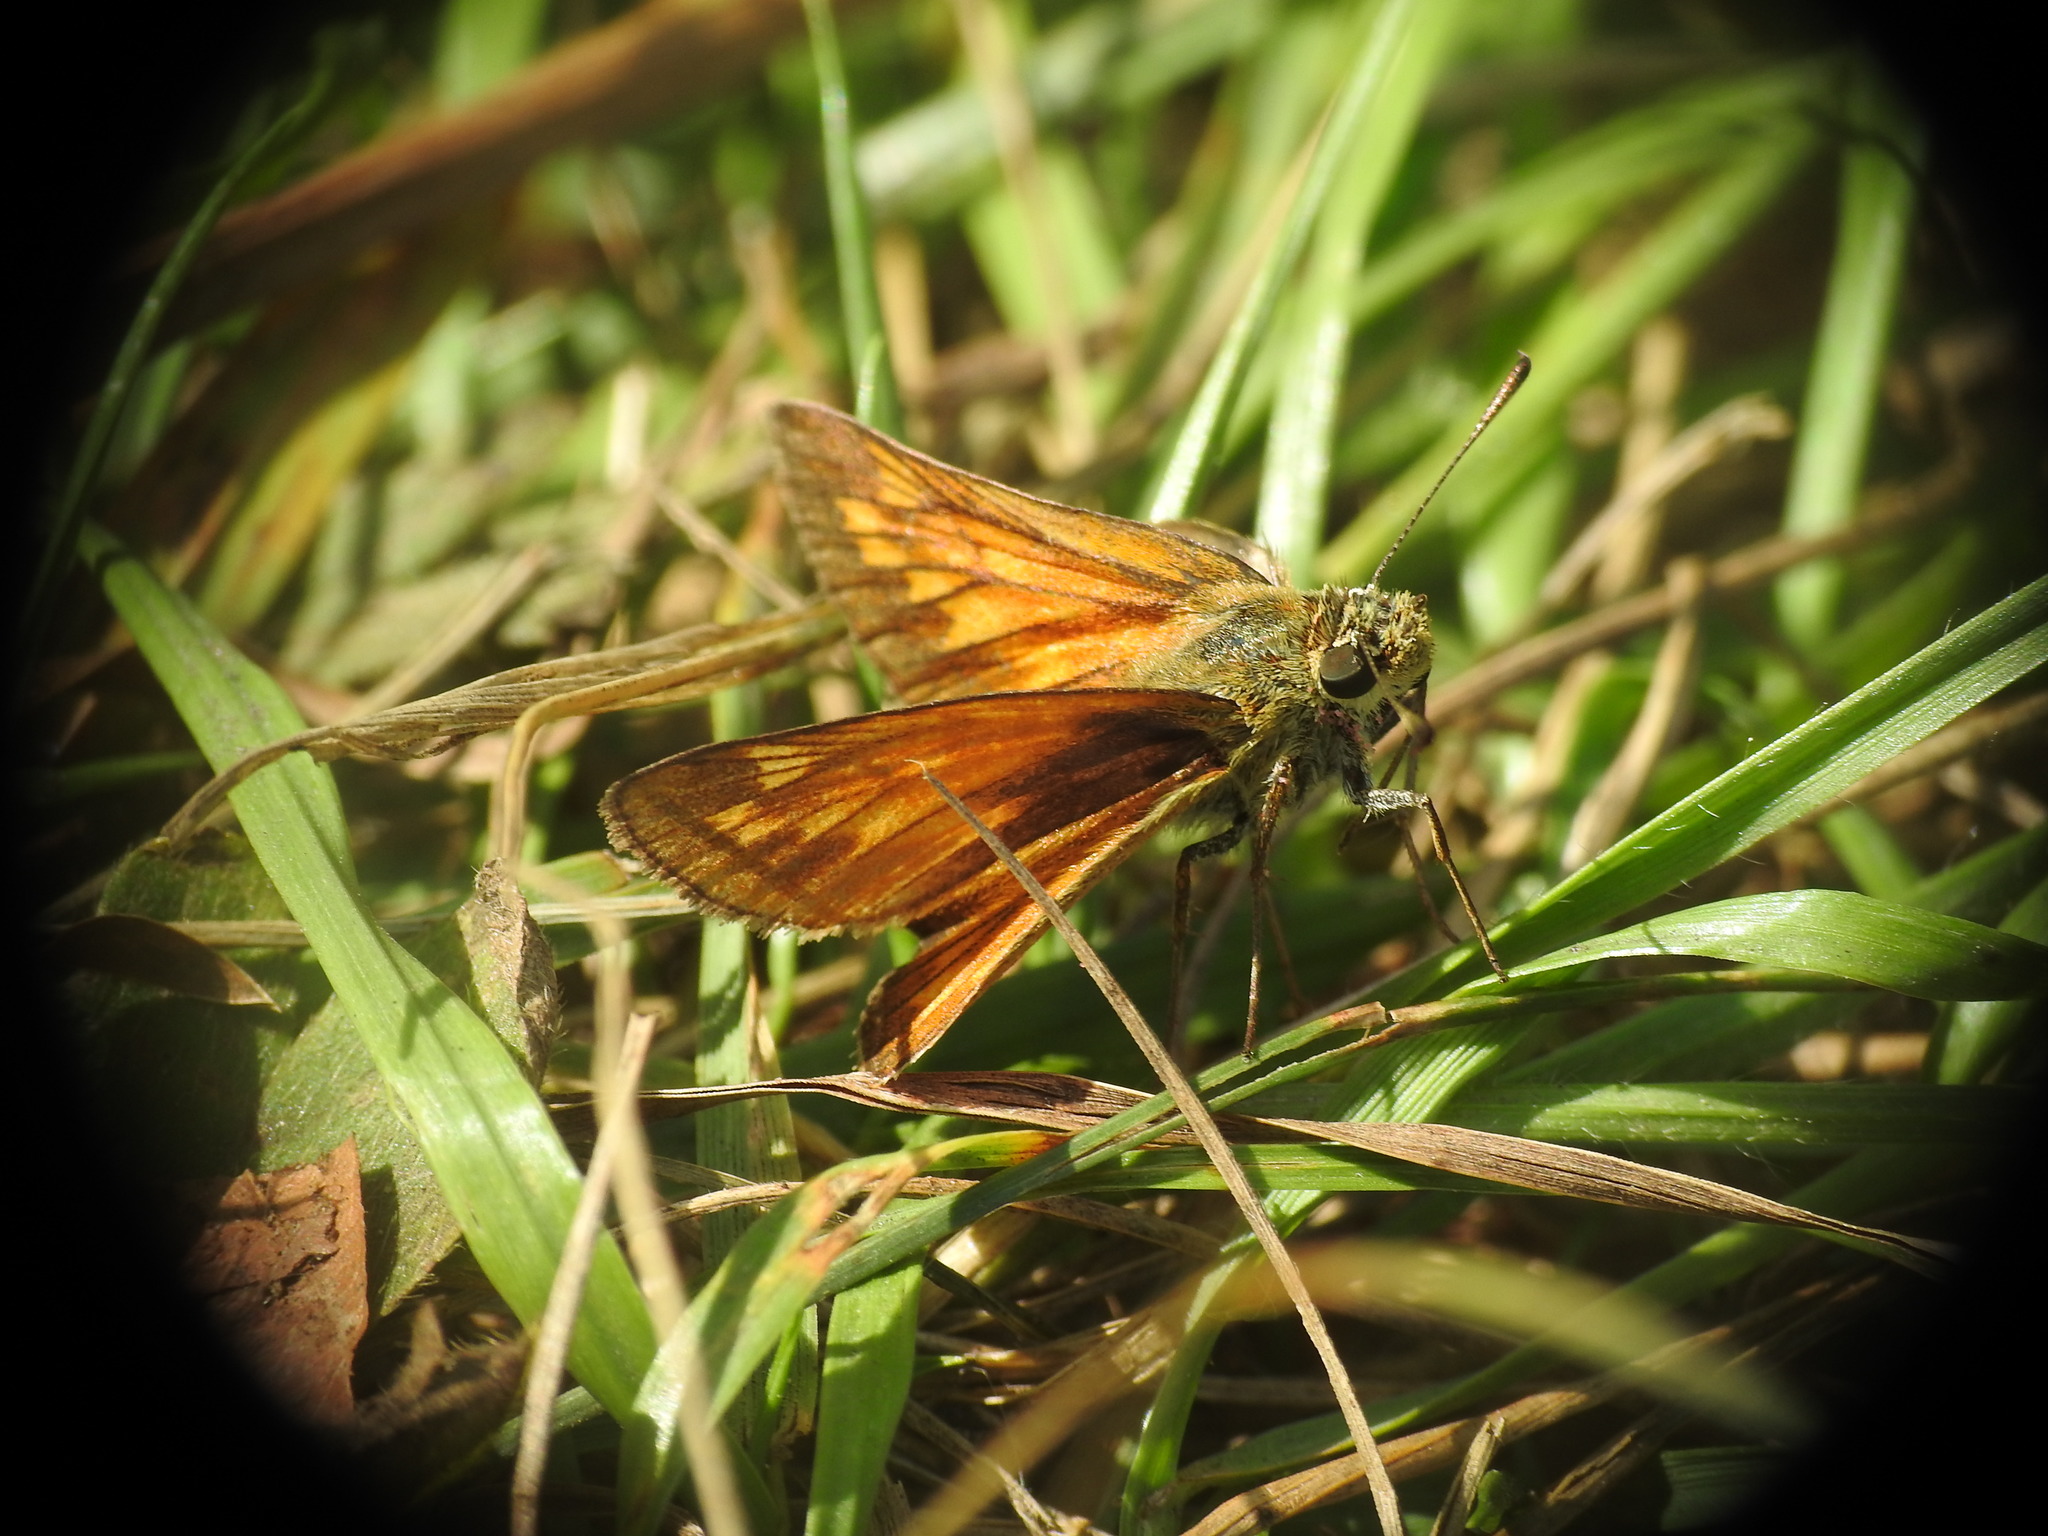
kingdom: Animalia
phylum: Arthropoda
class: Insecta
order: Lepidoptera
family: Hesperiidae
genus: Ochlodes
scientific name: Ochlodes venata
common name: Large skipper
